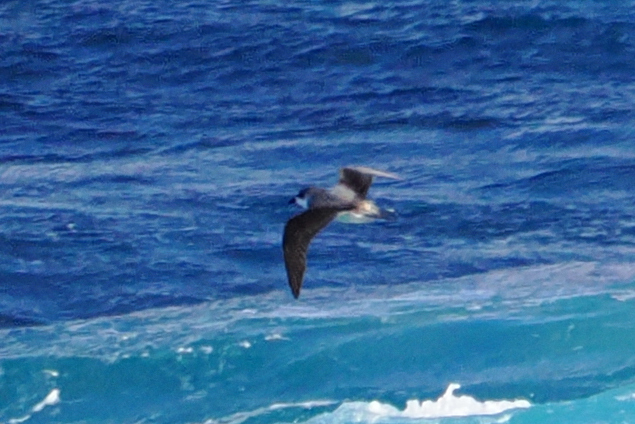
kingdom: Animalia
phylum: Chordata
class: Aves
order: Procellariiformes
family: Procellariidae
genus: Pterodroma
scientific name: Pterodroma mollis
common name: Soft-plumaged petrel
